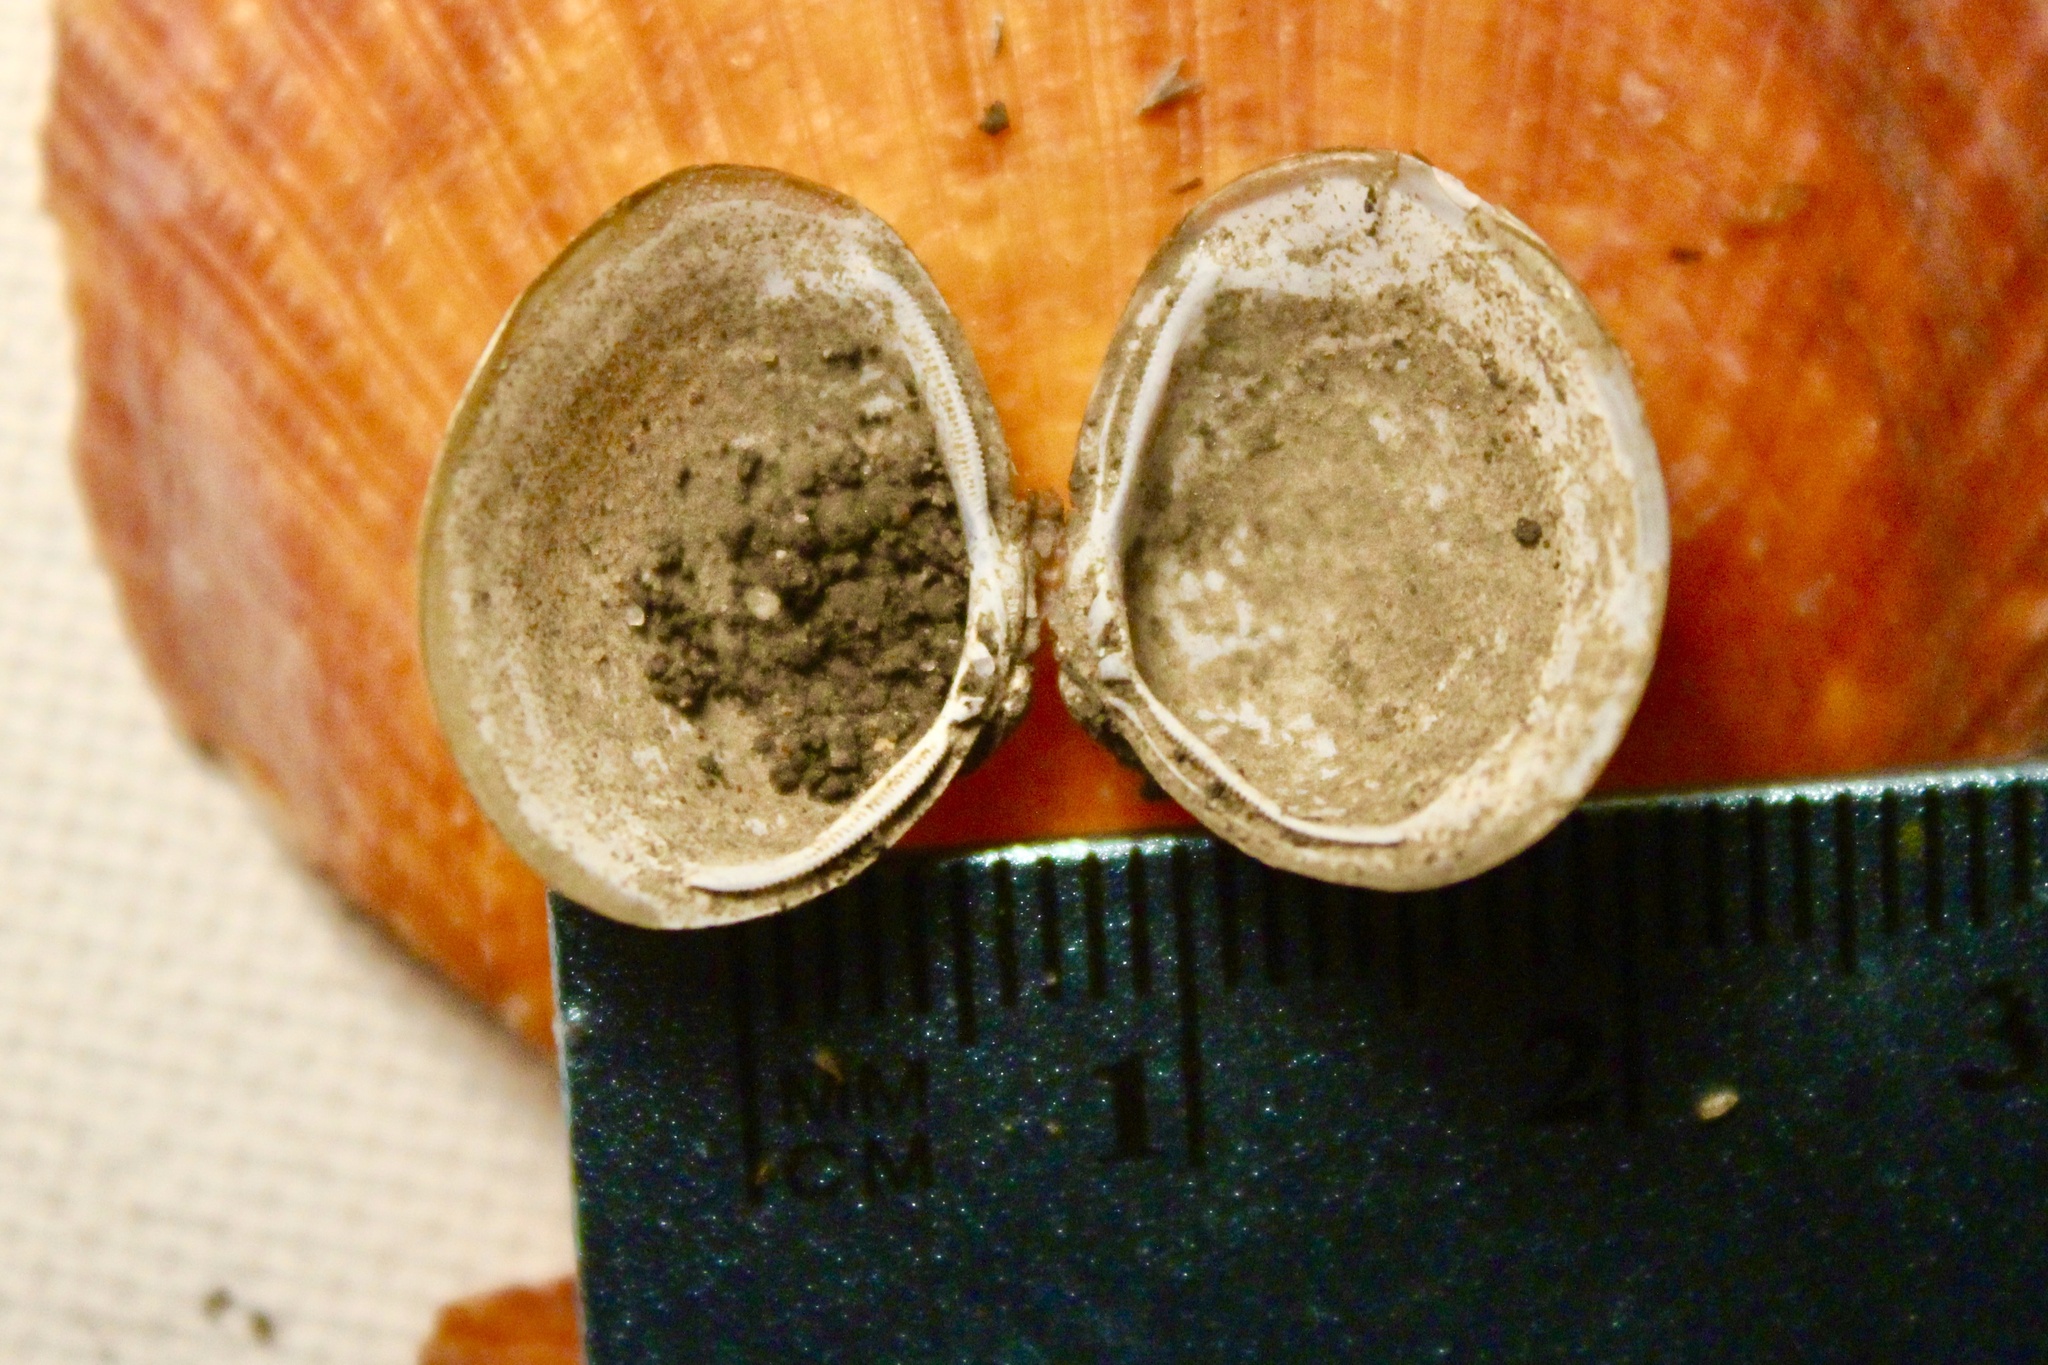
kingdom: Animalia
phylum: Mollusca
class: Bivalvia
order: Venerida
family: Cyrenidae
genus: Corbicula
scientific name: Corbicula fluminea
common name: Asian clam
